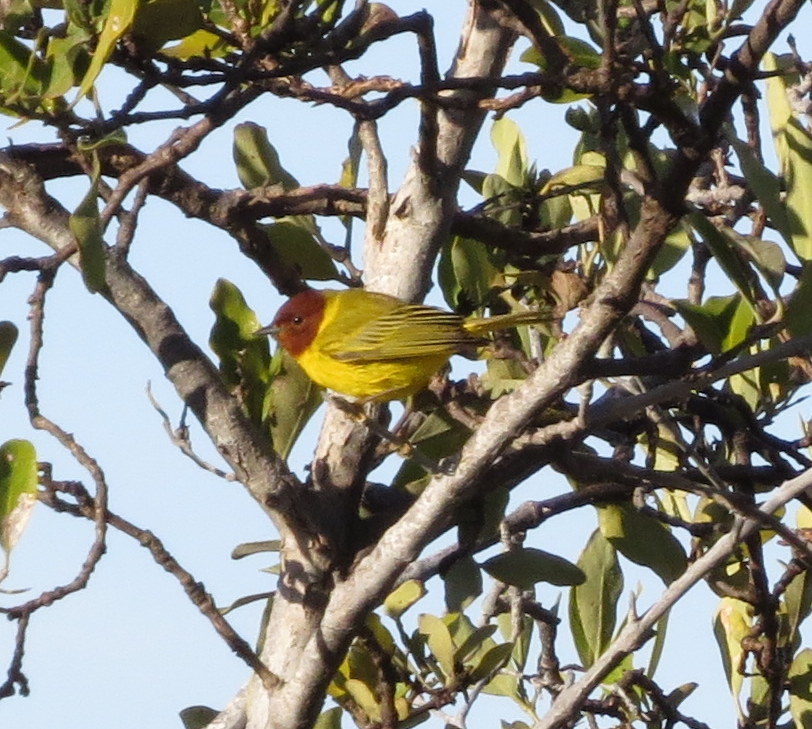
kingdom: Animalia
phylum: Chordata
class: Aves
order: Passeriformes
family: Parulidae
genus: Setophaga
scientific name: Setophaga petechia
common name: Yellow warbler
